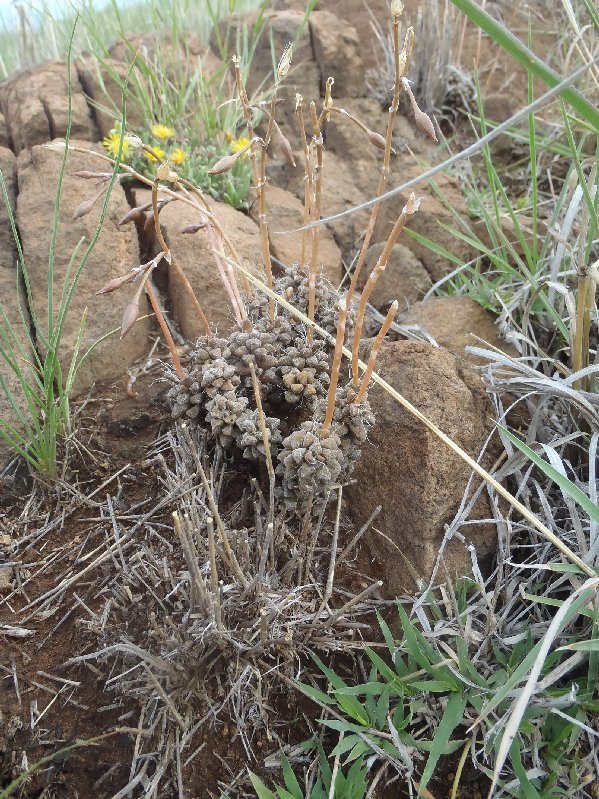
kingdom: Plantae
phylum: Tracheophyta
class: Magnoliopsida
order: Caryophyllales
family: Anacampserotaceae
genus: Anacampseros
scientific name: Anacampseros filamentosa
